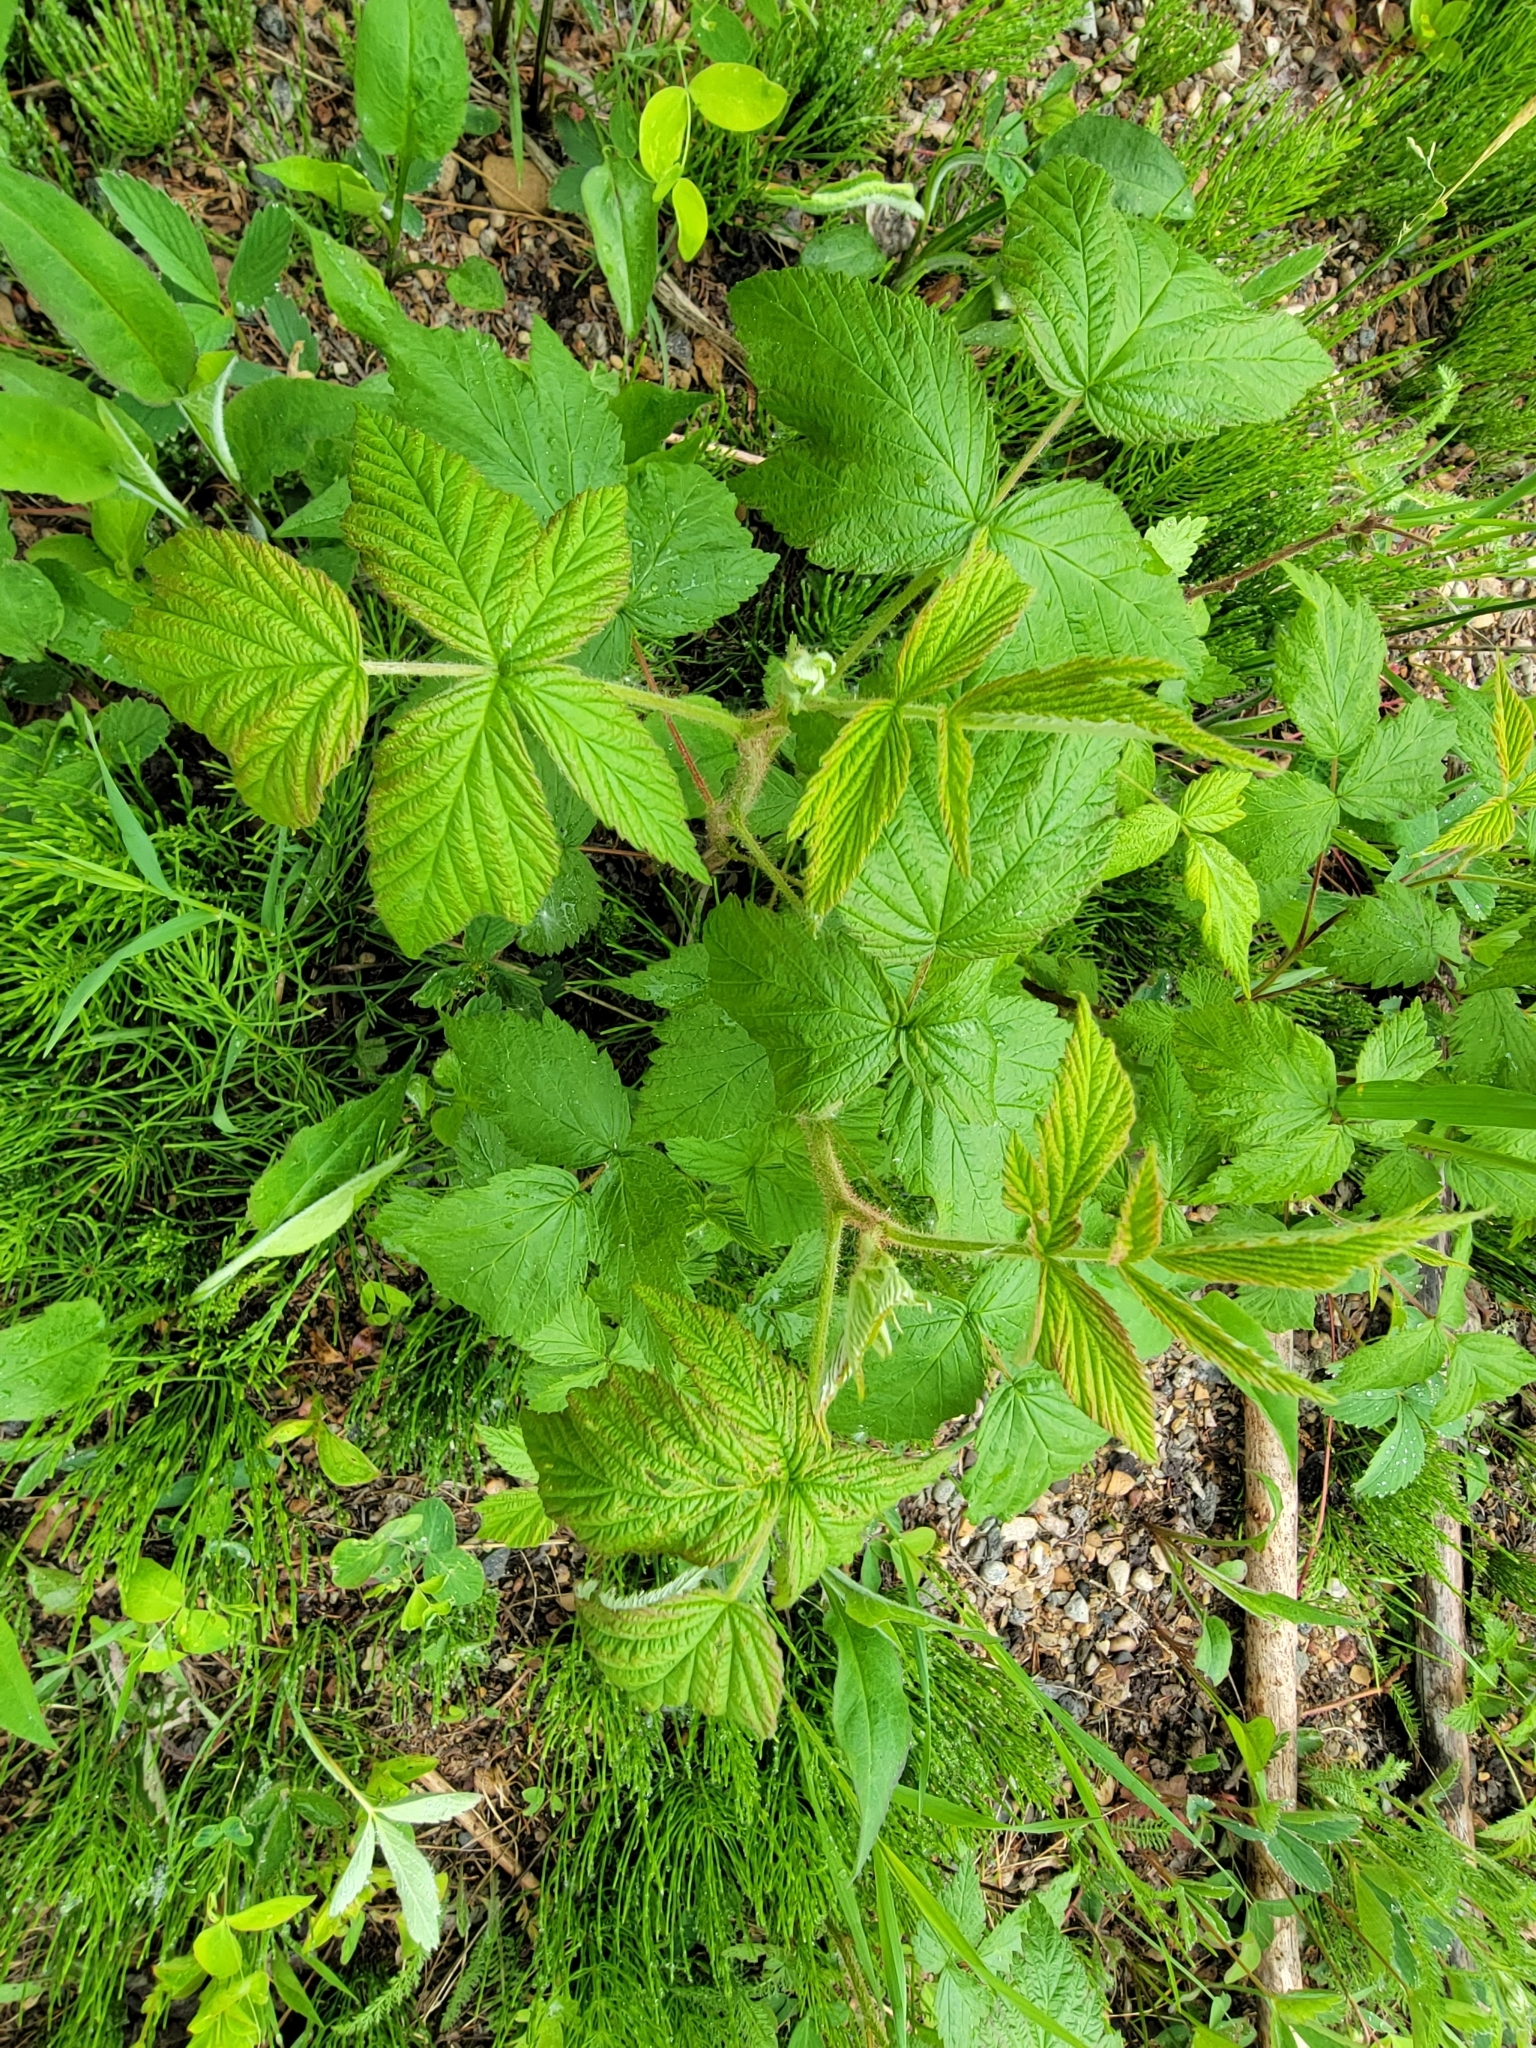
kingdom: Plantae
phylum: Tracheophyta
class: Magnoliopsida
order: Rosales
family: Rosaceae
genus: Rubus
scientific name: Rubus idaeus
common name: Raspberry
